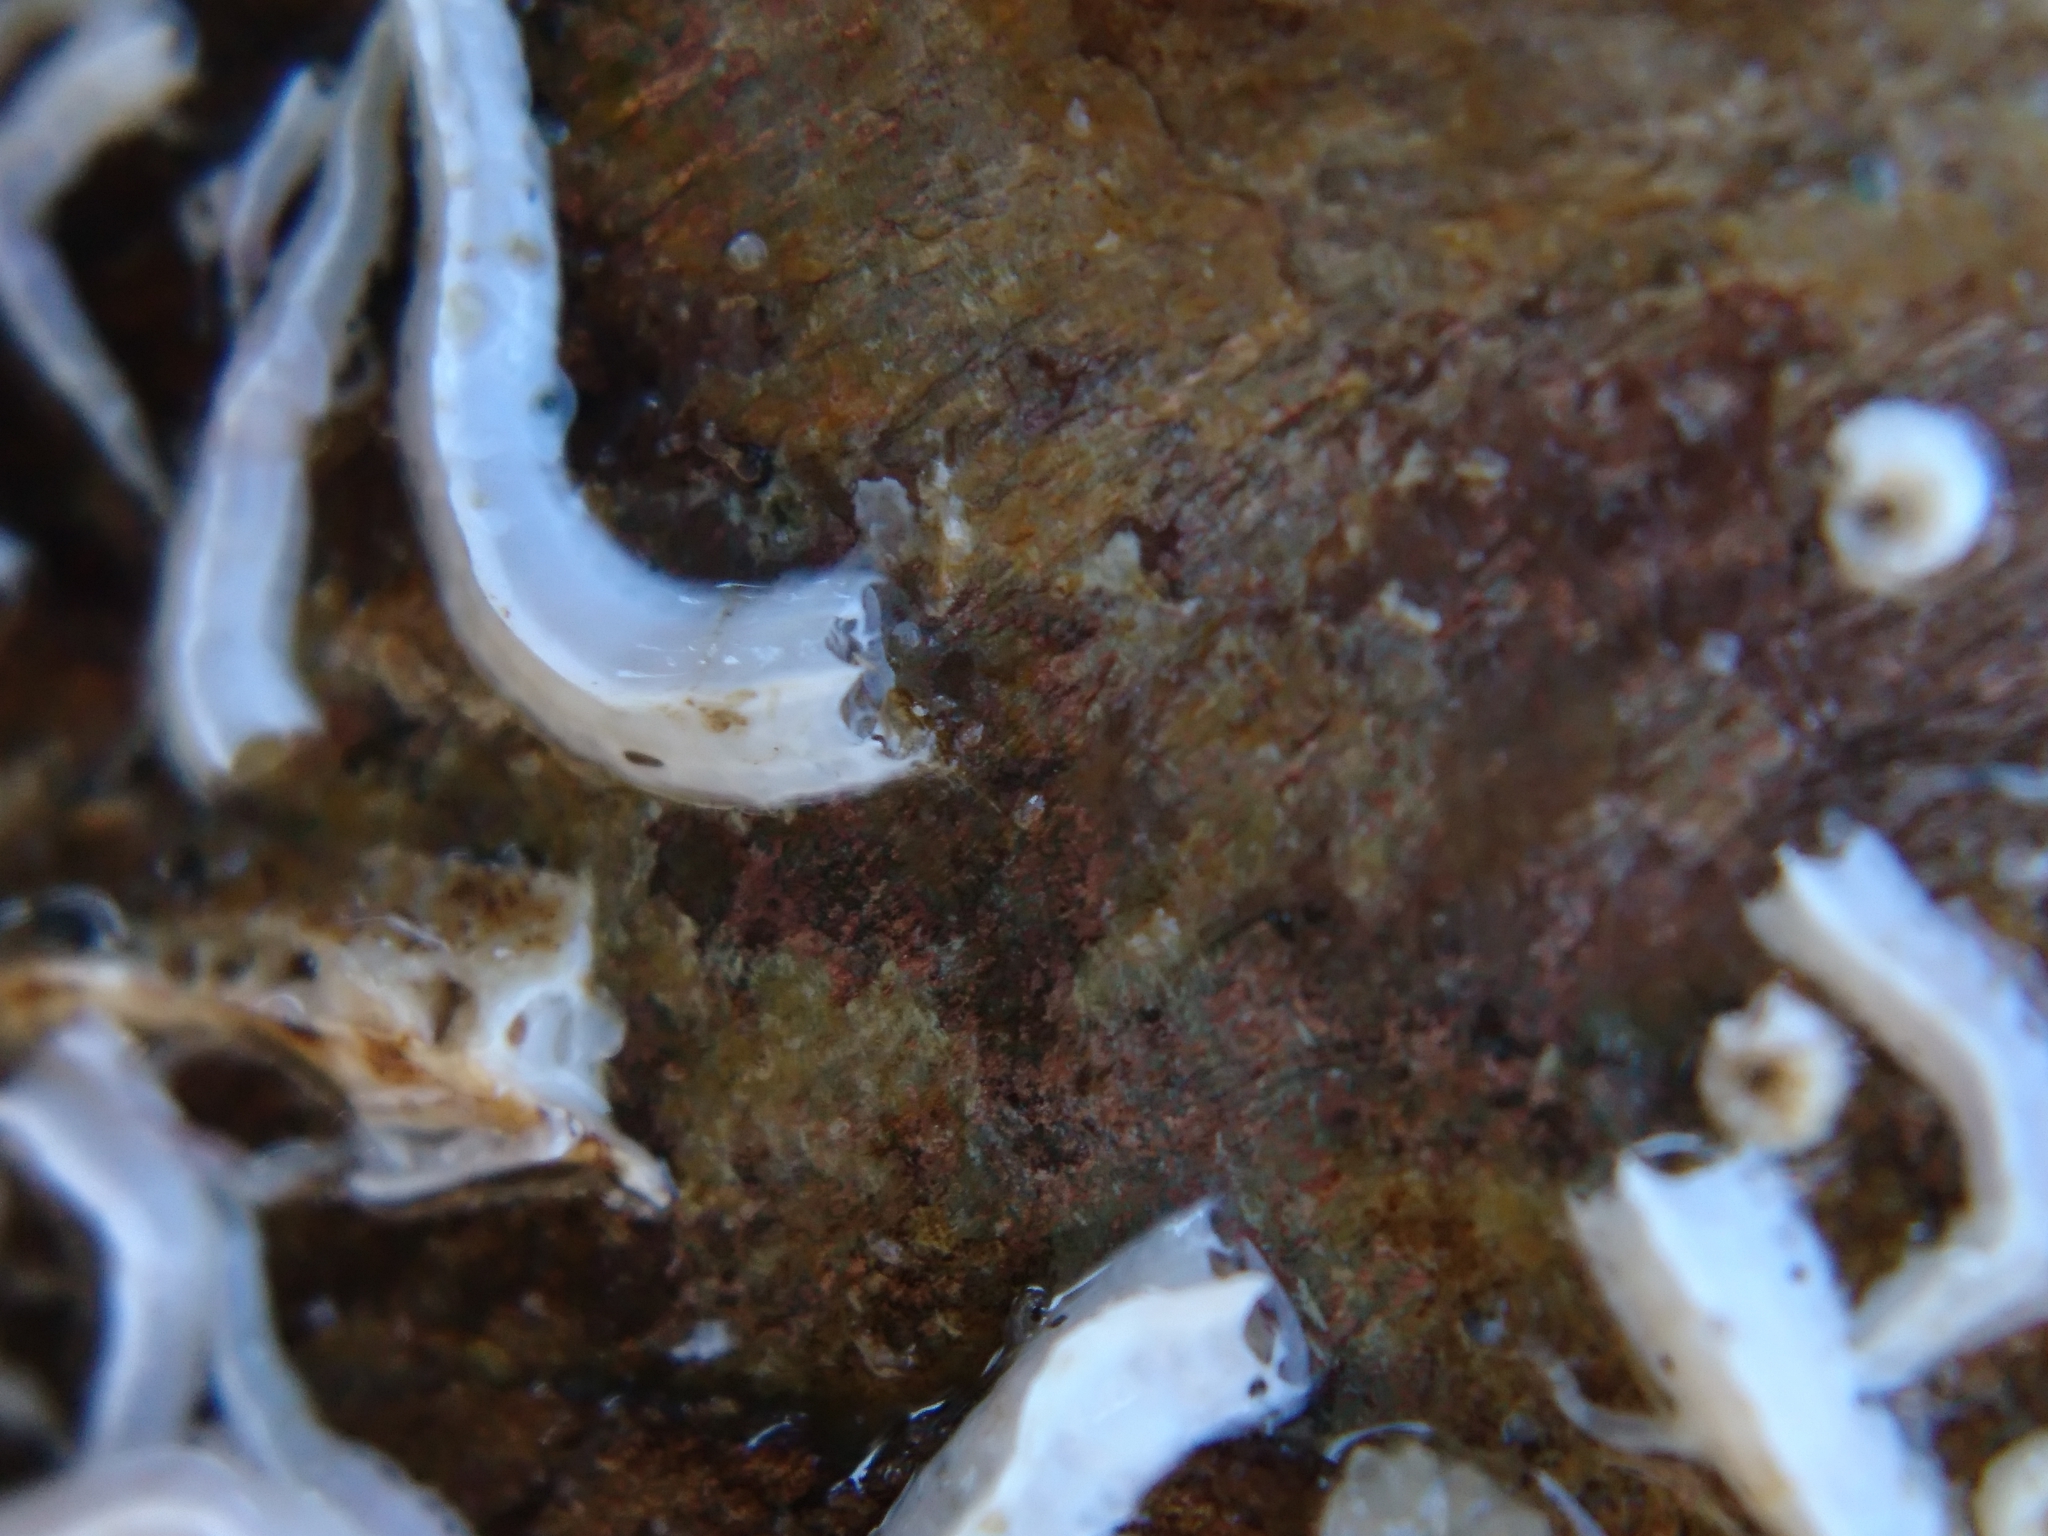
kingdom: Animalia
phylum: Annelida
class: Polychaeta
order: Sabellida
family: Serpulidae
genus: Spirobranchus
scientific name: Spirobranchus triqueter
